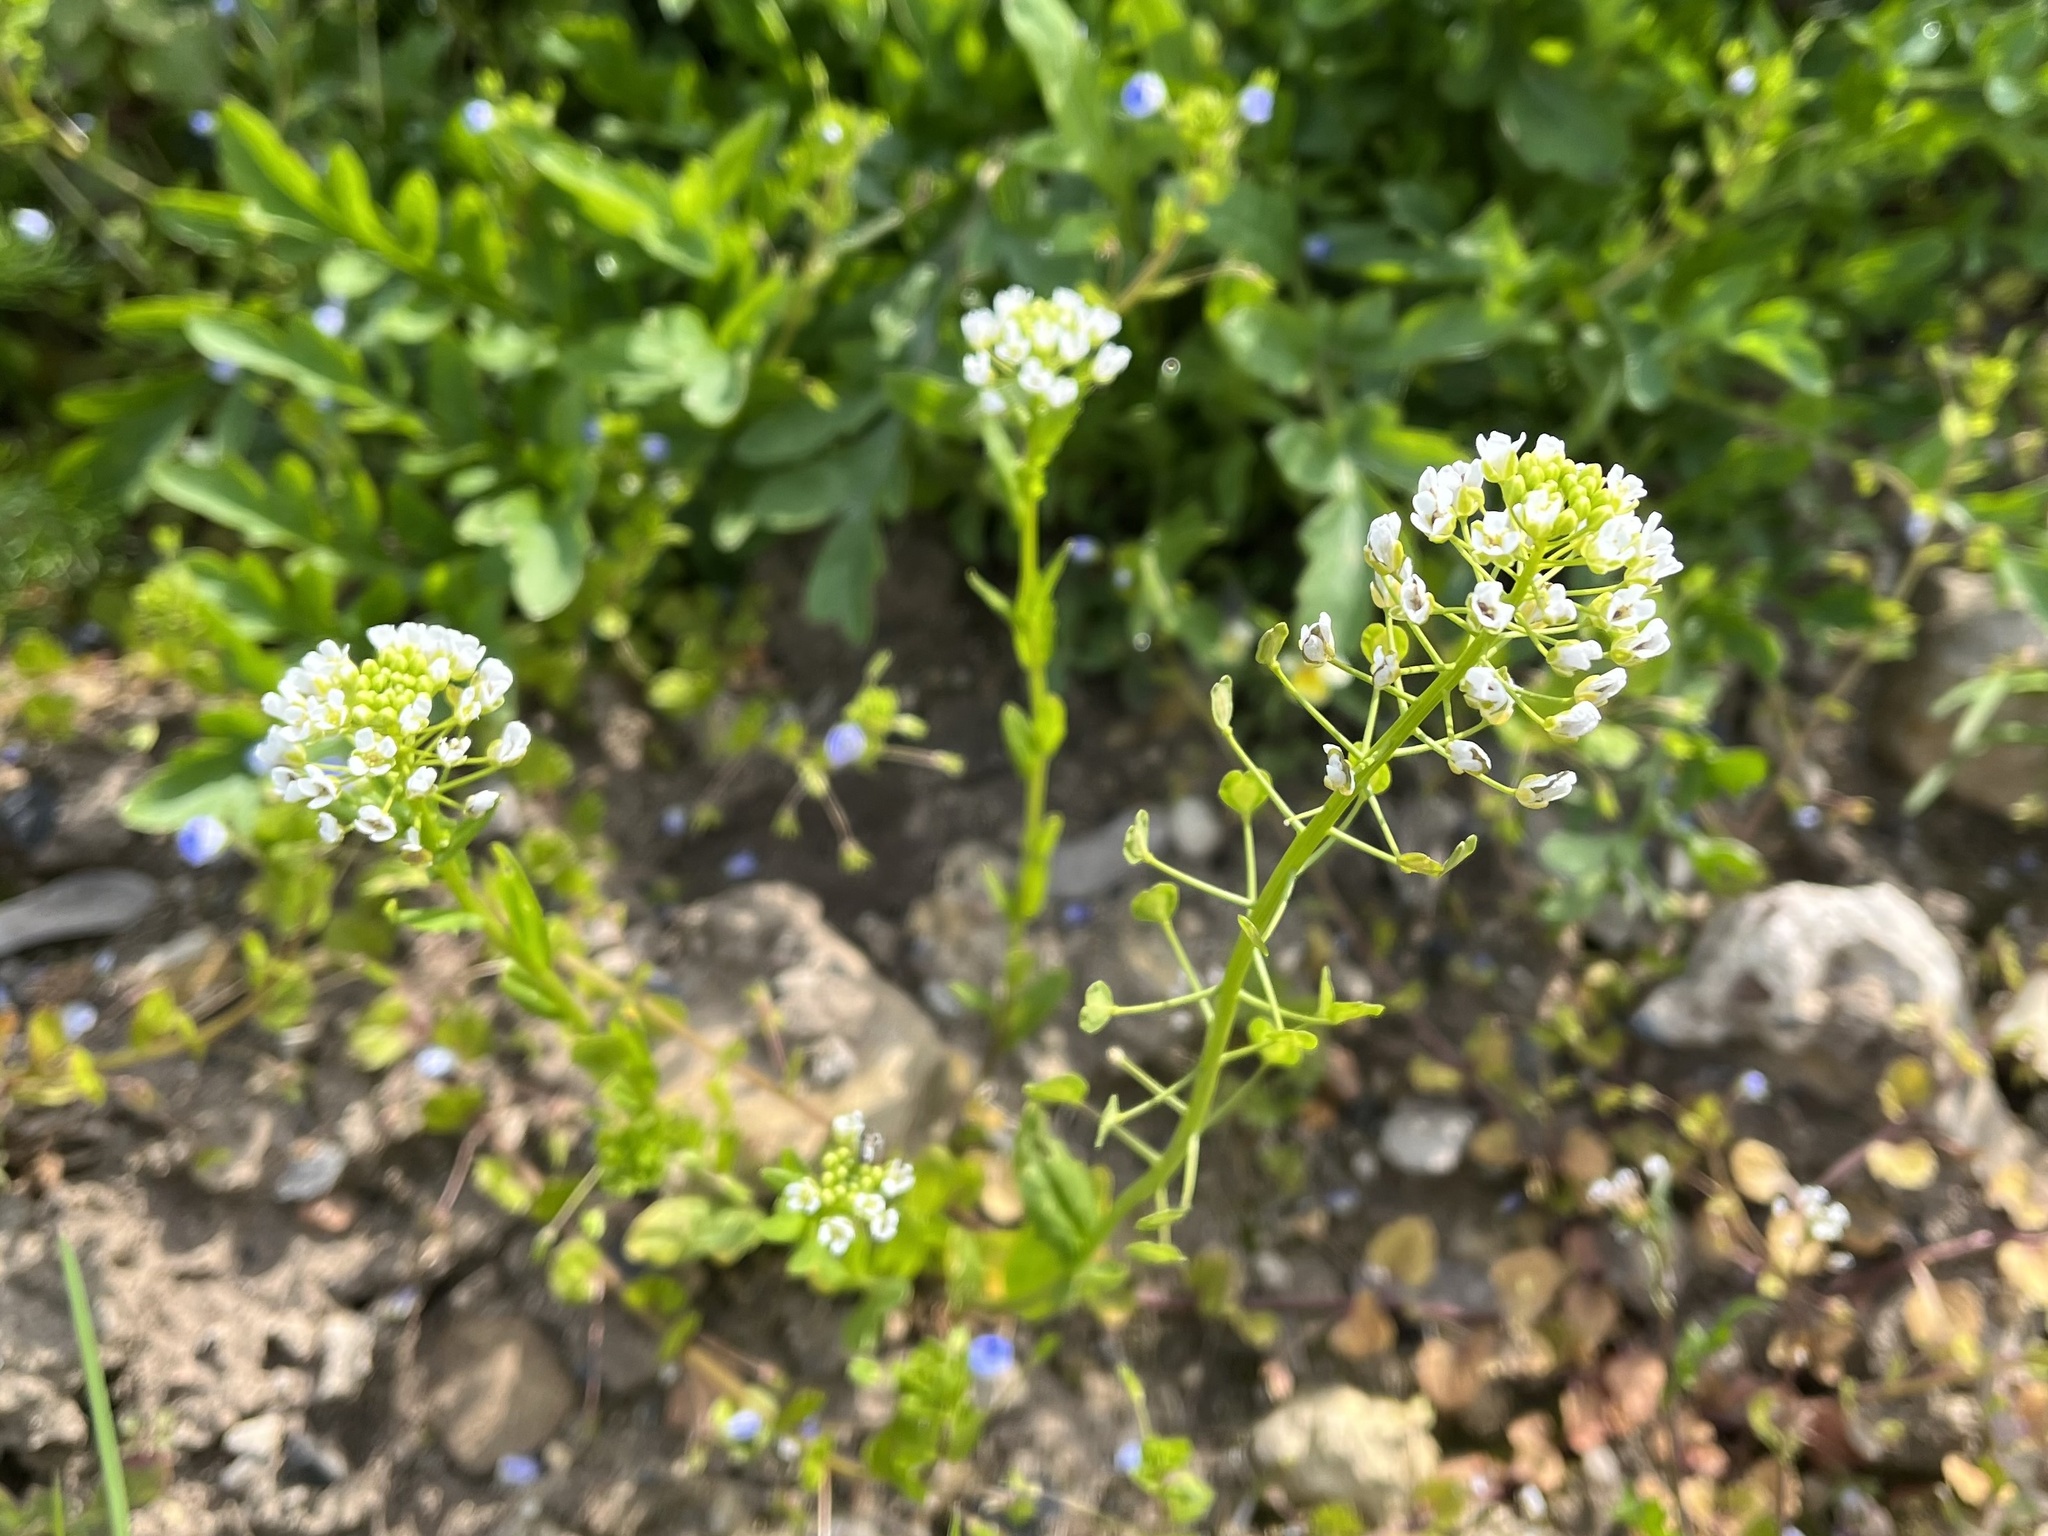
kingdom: Plantae
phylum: Tracheophyta
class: Magnoliopsida
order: Brassicales
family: Brassicaceae
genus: Thlaspi
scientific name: Thlaspi arvense
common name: Field pennycress
